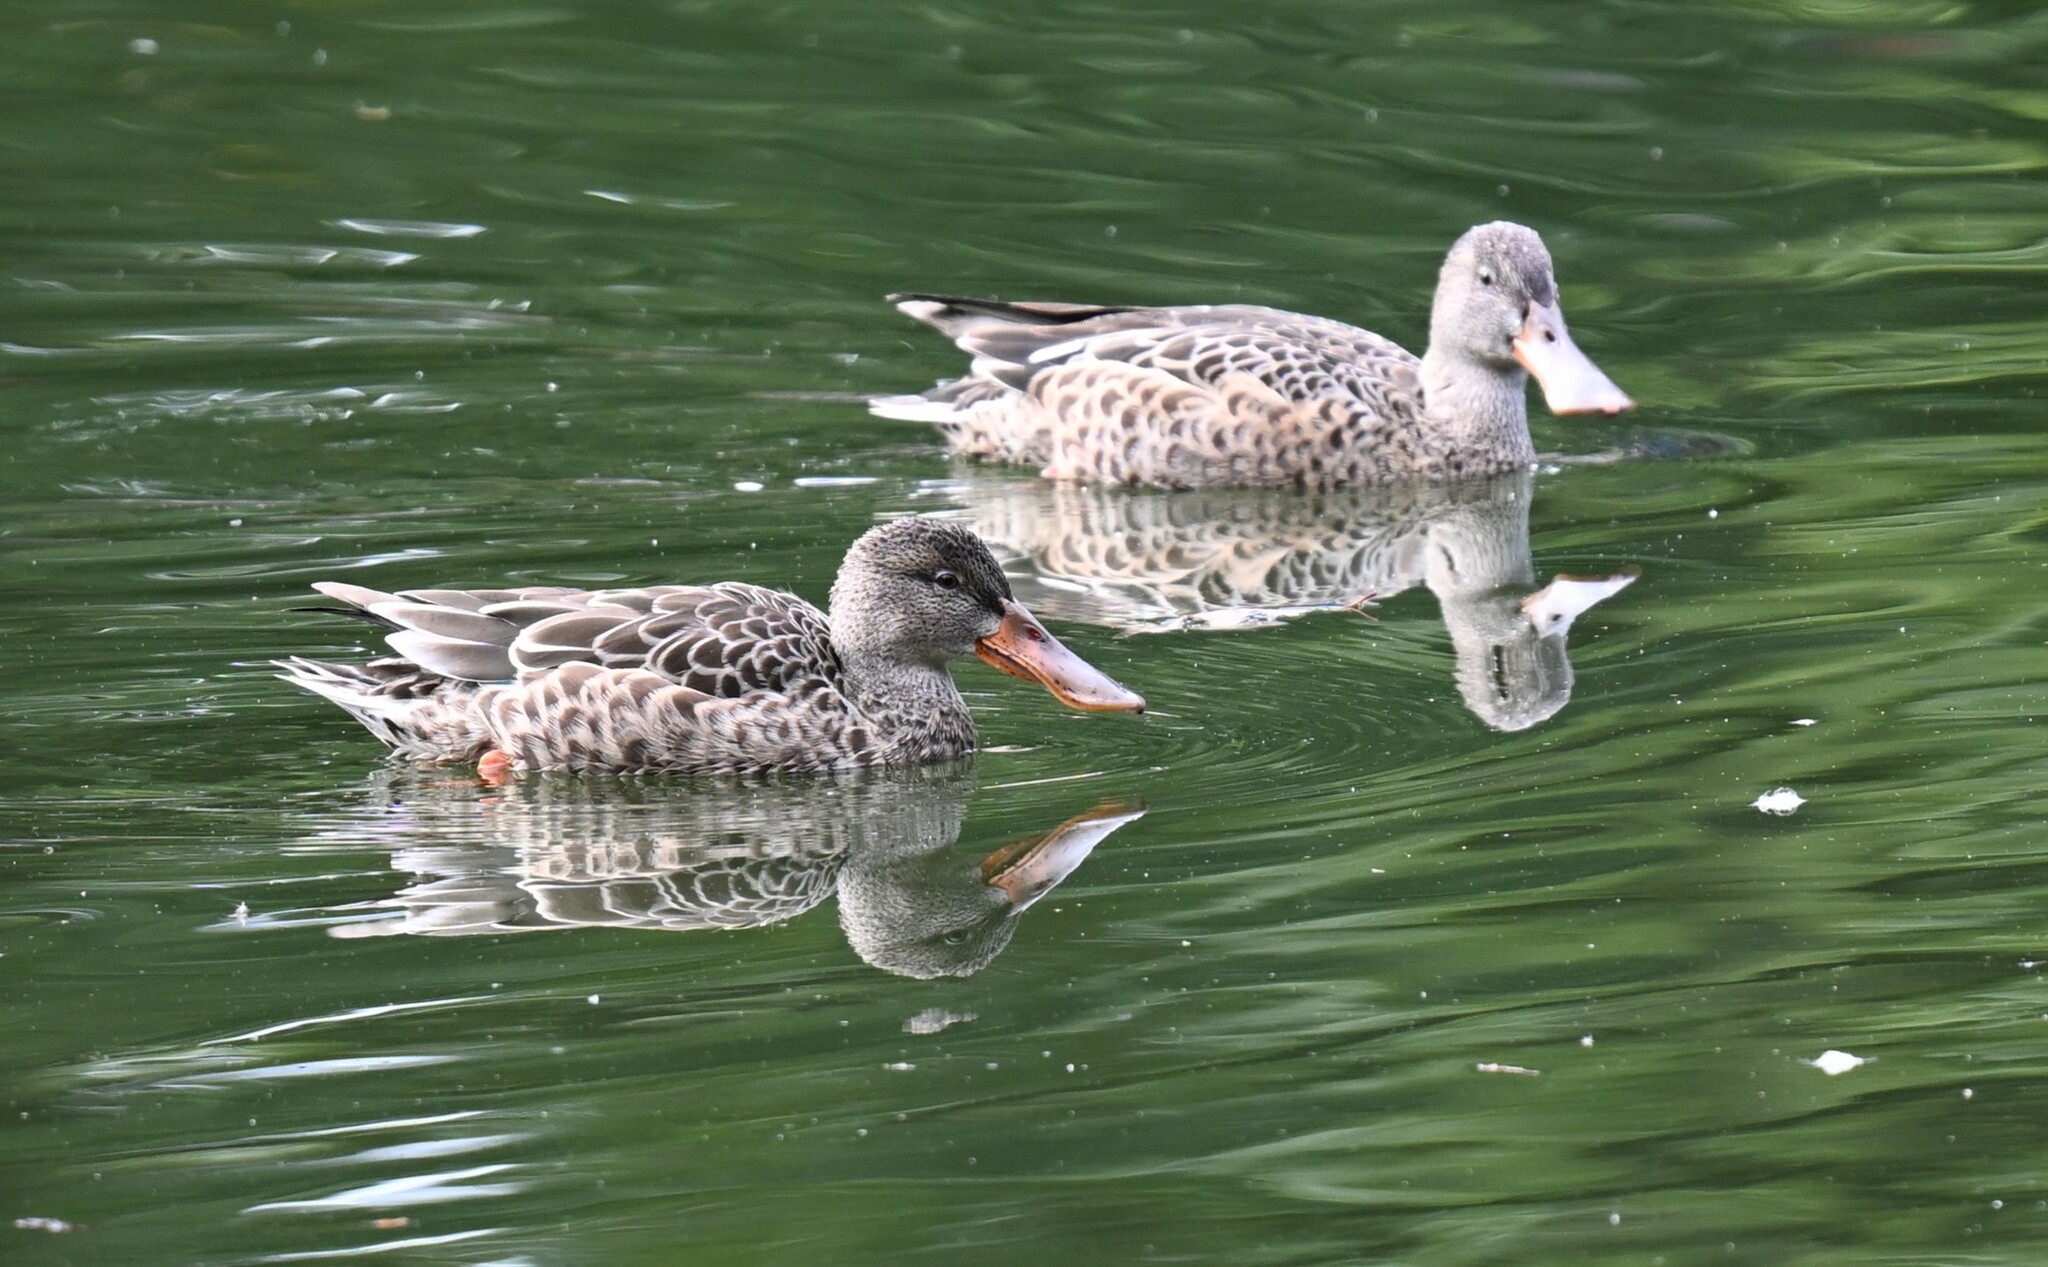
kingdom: Animalia
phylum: Chordata
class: Aves
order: Anseriformes
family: Anatidae
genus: Spatula
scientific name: Spatula clypeata
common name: Northern shoveler
